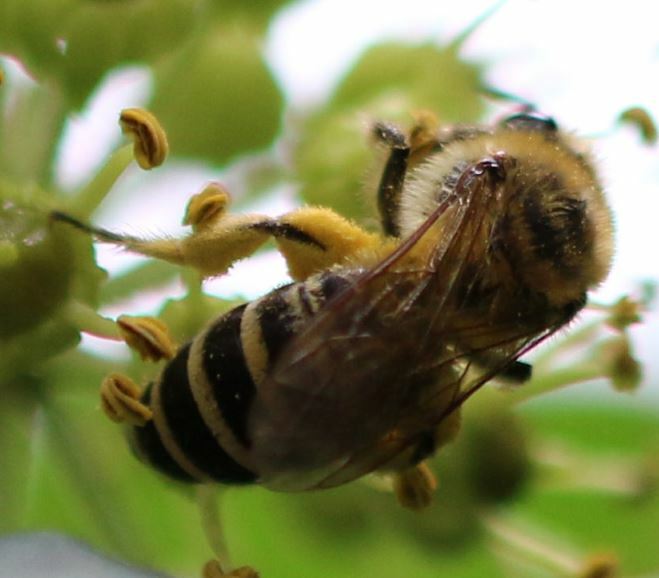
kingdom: Animalia
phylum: Arthropoda
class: Insecta
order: Hymenoptera
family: Colletidae
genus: Colletes
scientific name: Colletes hederae
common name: Ivy bee
